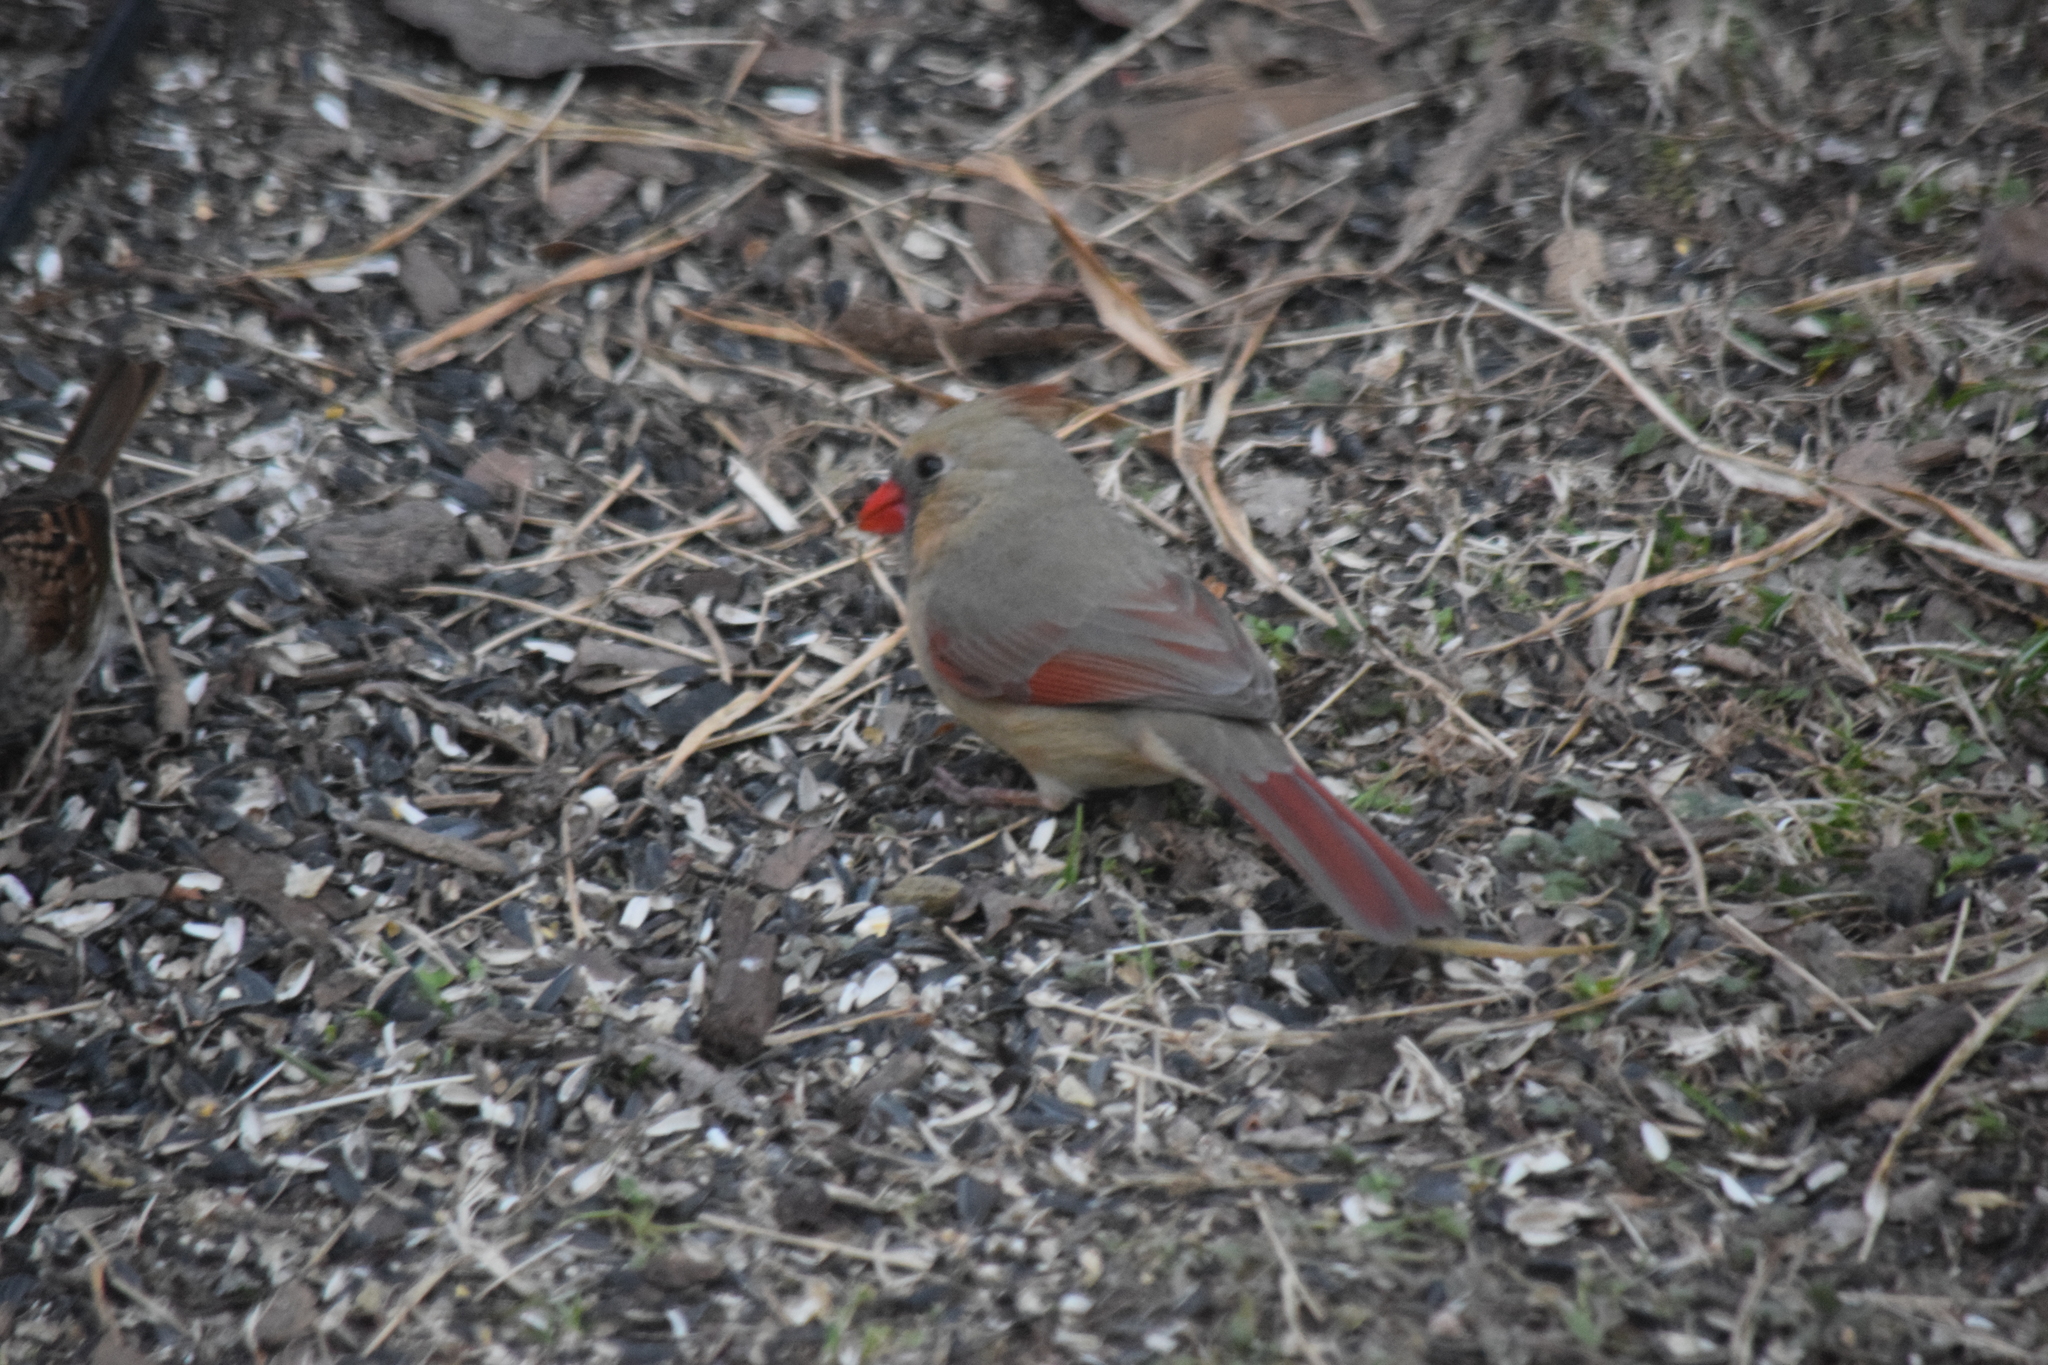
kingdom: Animalia
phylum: Chordata
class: Aves
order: Passeriformes
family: Cardinalidae
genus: Cardinalis
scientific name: Cardinalis cardinalis
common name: Northern cardinal
